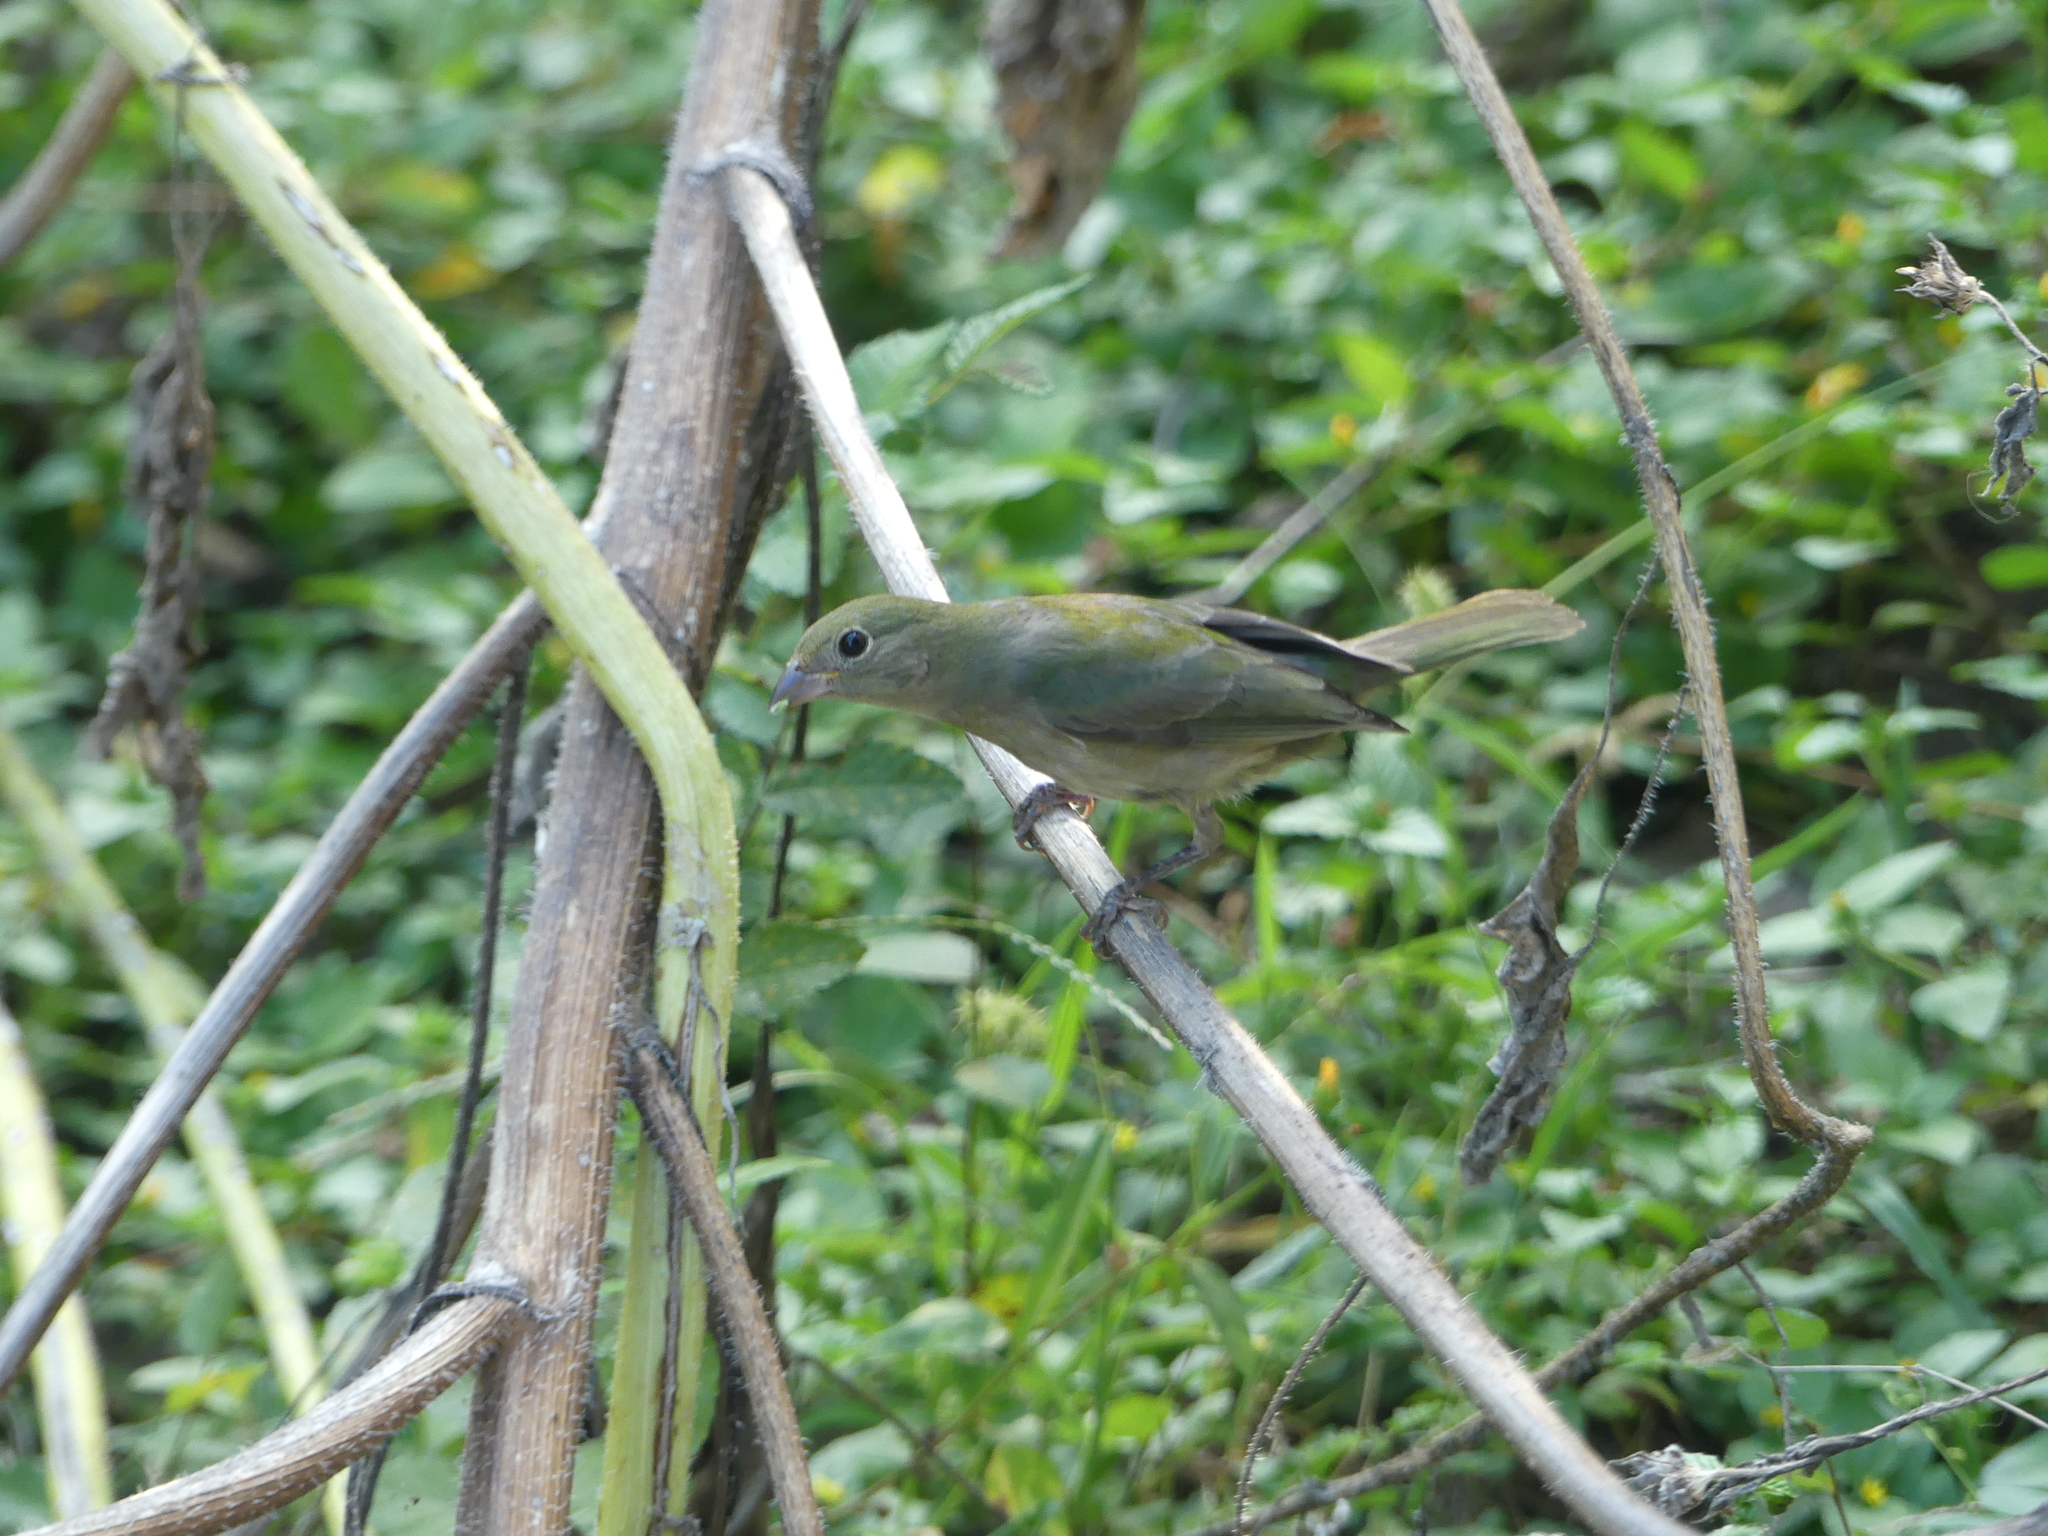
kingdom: Animalia
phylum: Chordata
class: Aves
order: Passeriformes
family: Cardinalidae
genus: Passerina
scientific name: Passerina ciris
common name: Painted bunting
